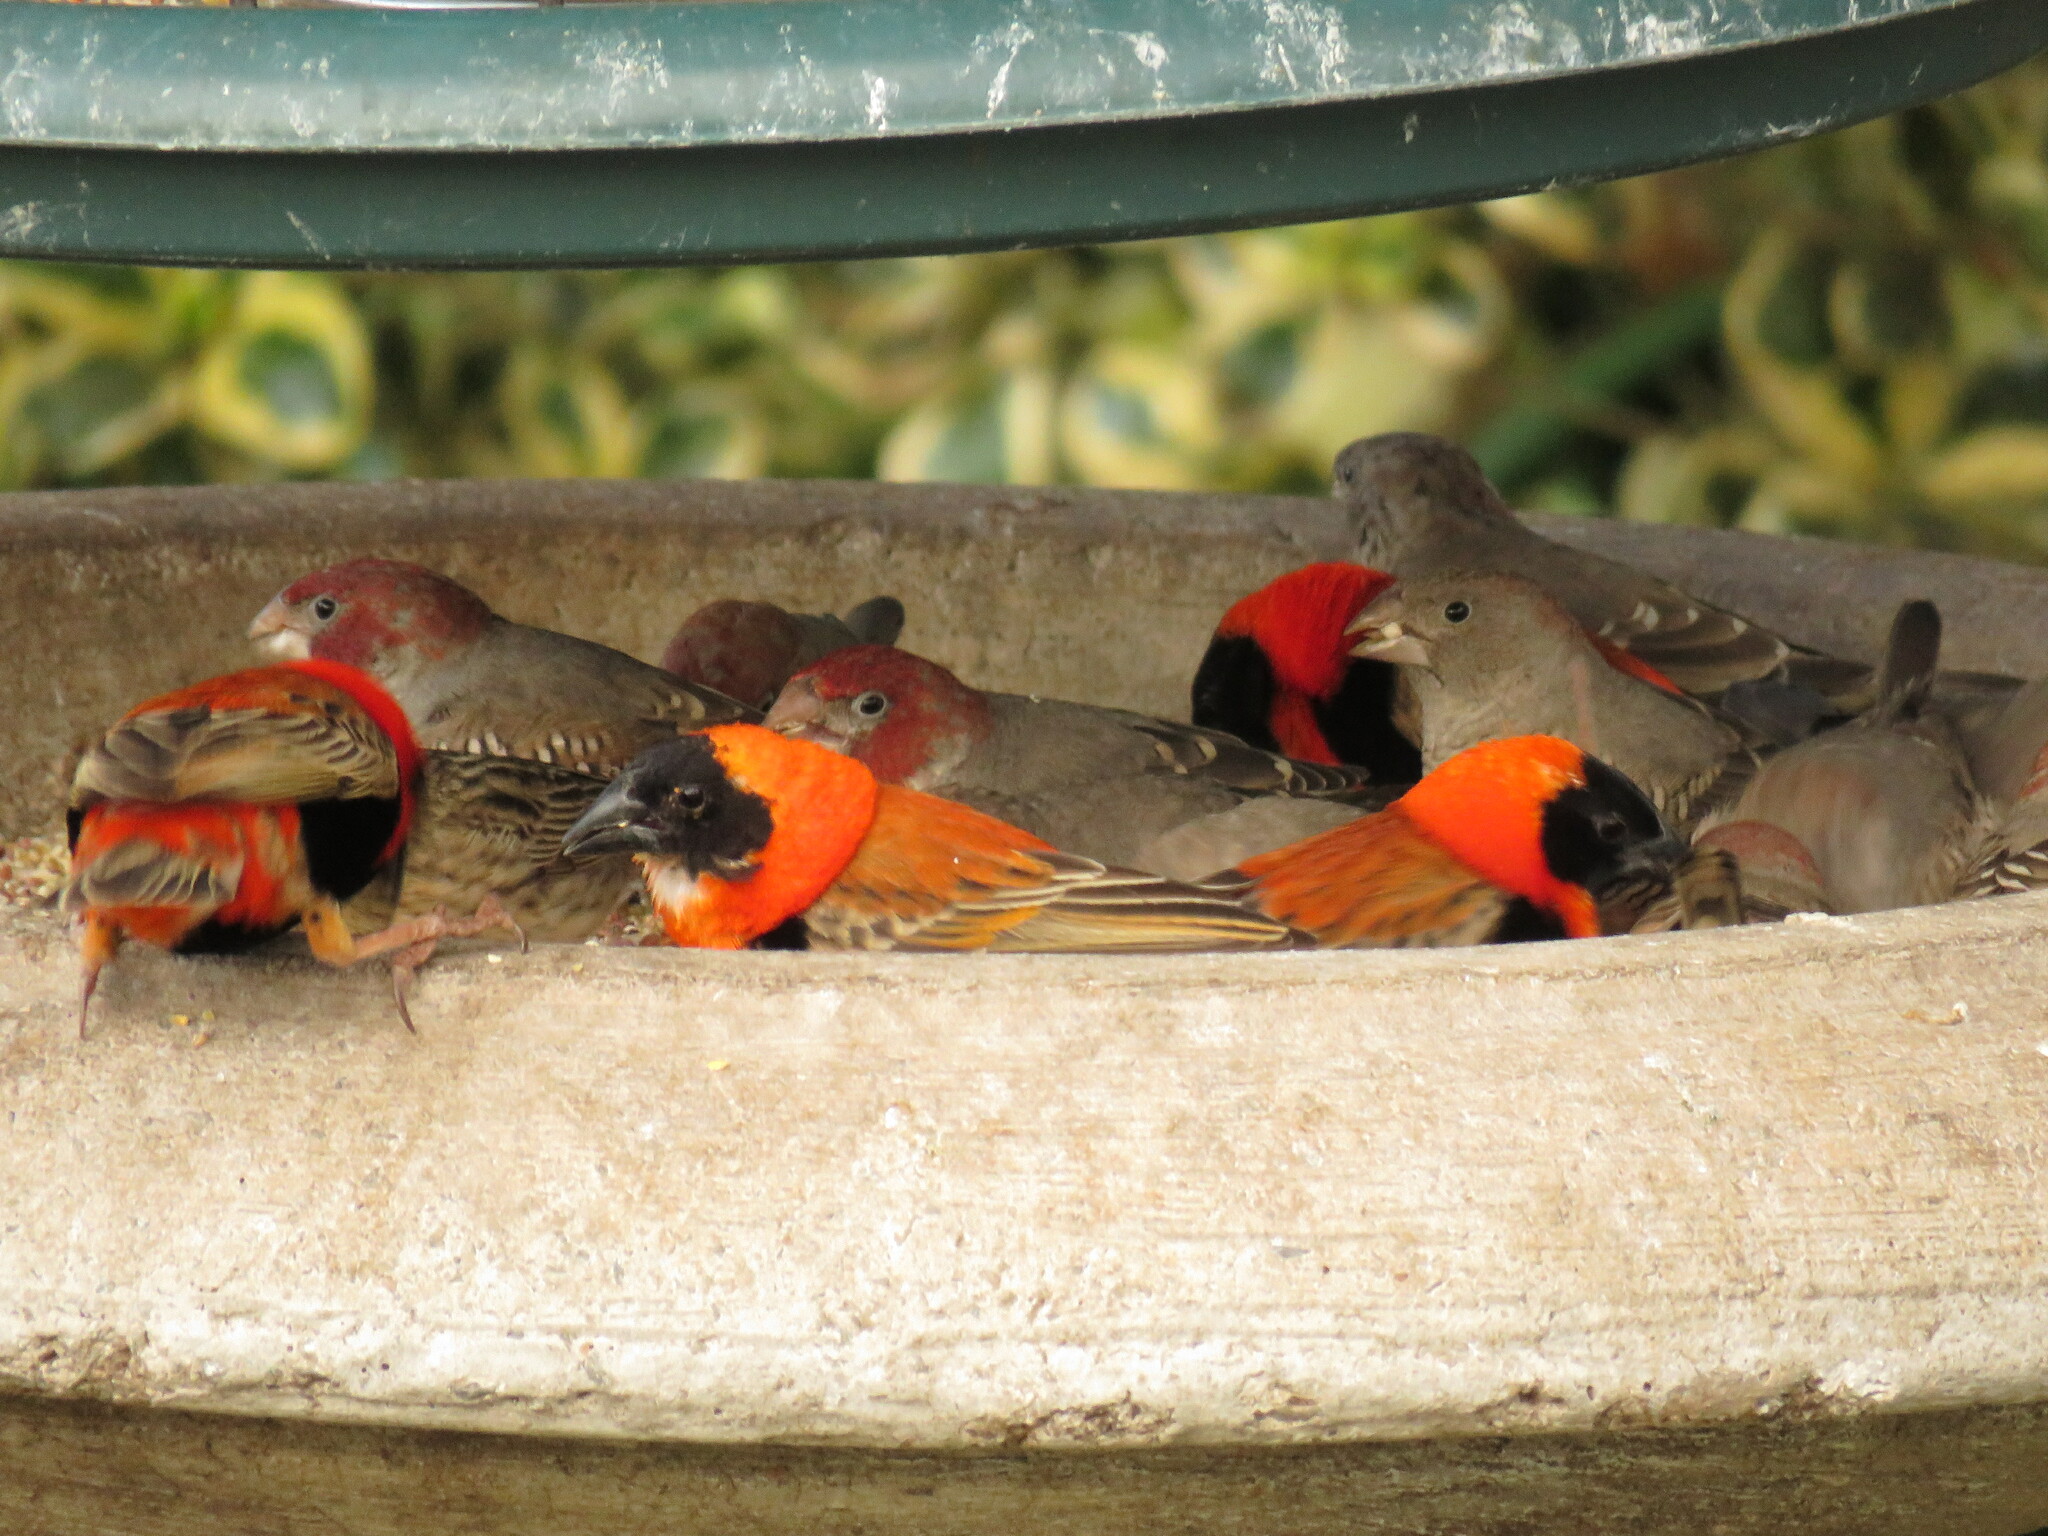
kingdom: Animalia
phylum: Chordata
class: Aves
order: Passeriformes
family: Estrildidae
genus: Amadina
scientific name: Amadina erythrocephala
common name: Red-headed finch
